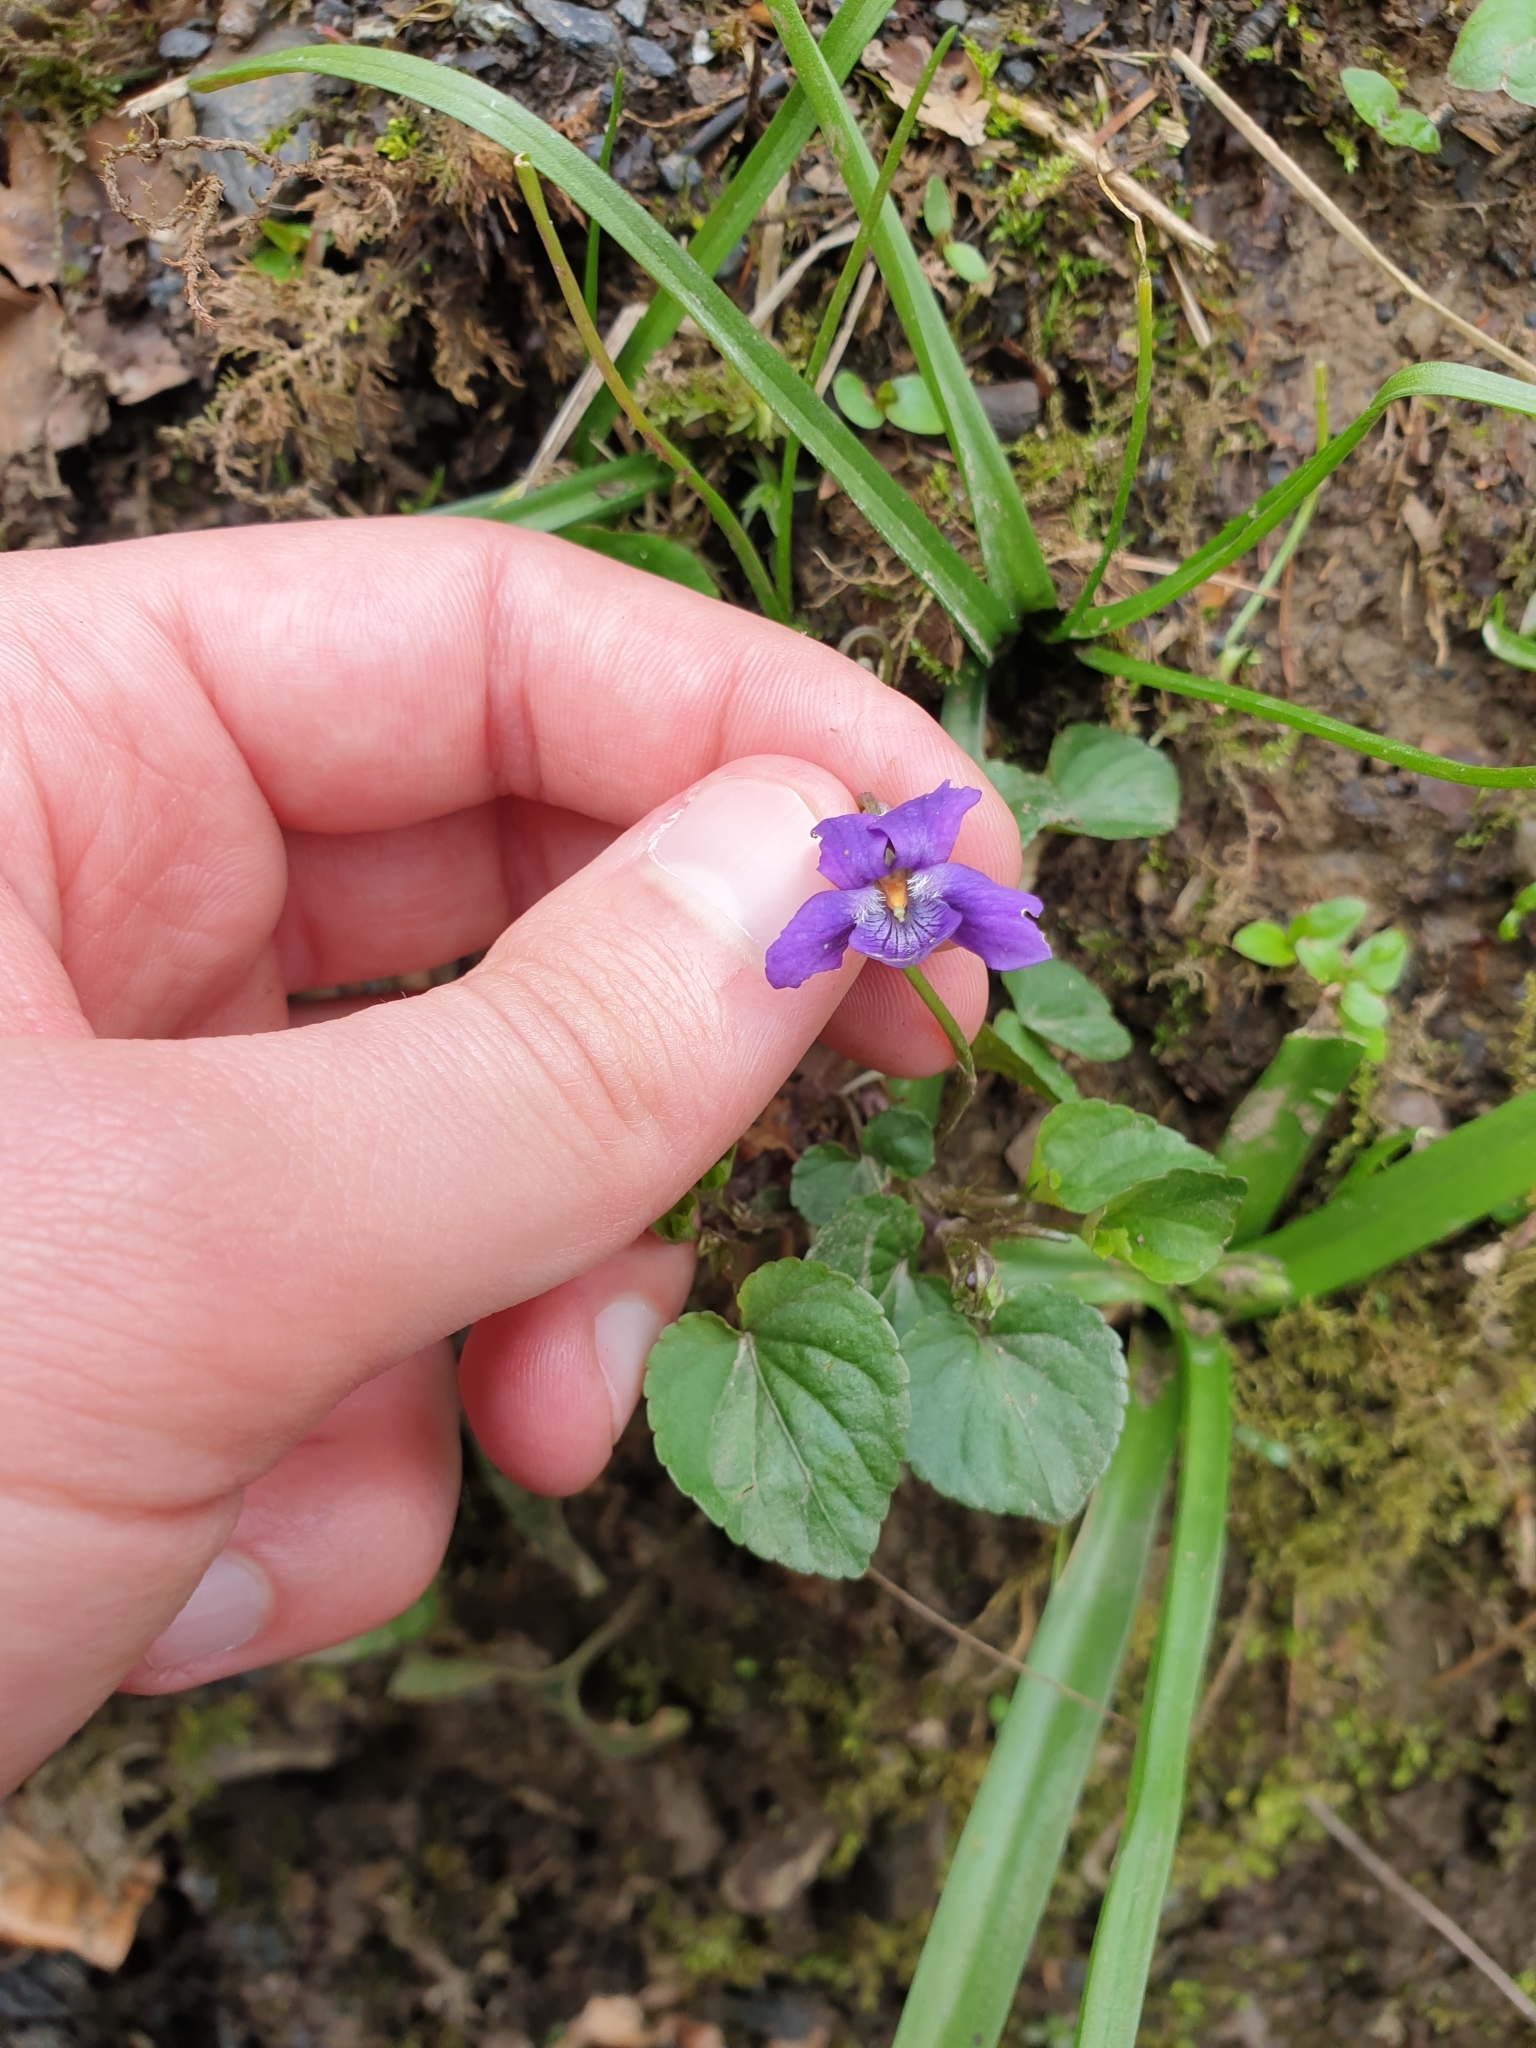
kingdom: Plantae
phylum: Tracheophyta
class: Magnoliopsida
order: Malpighiales
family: Violaceae
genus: Viola
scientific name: Viola riviniana
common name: Common dog-violet
